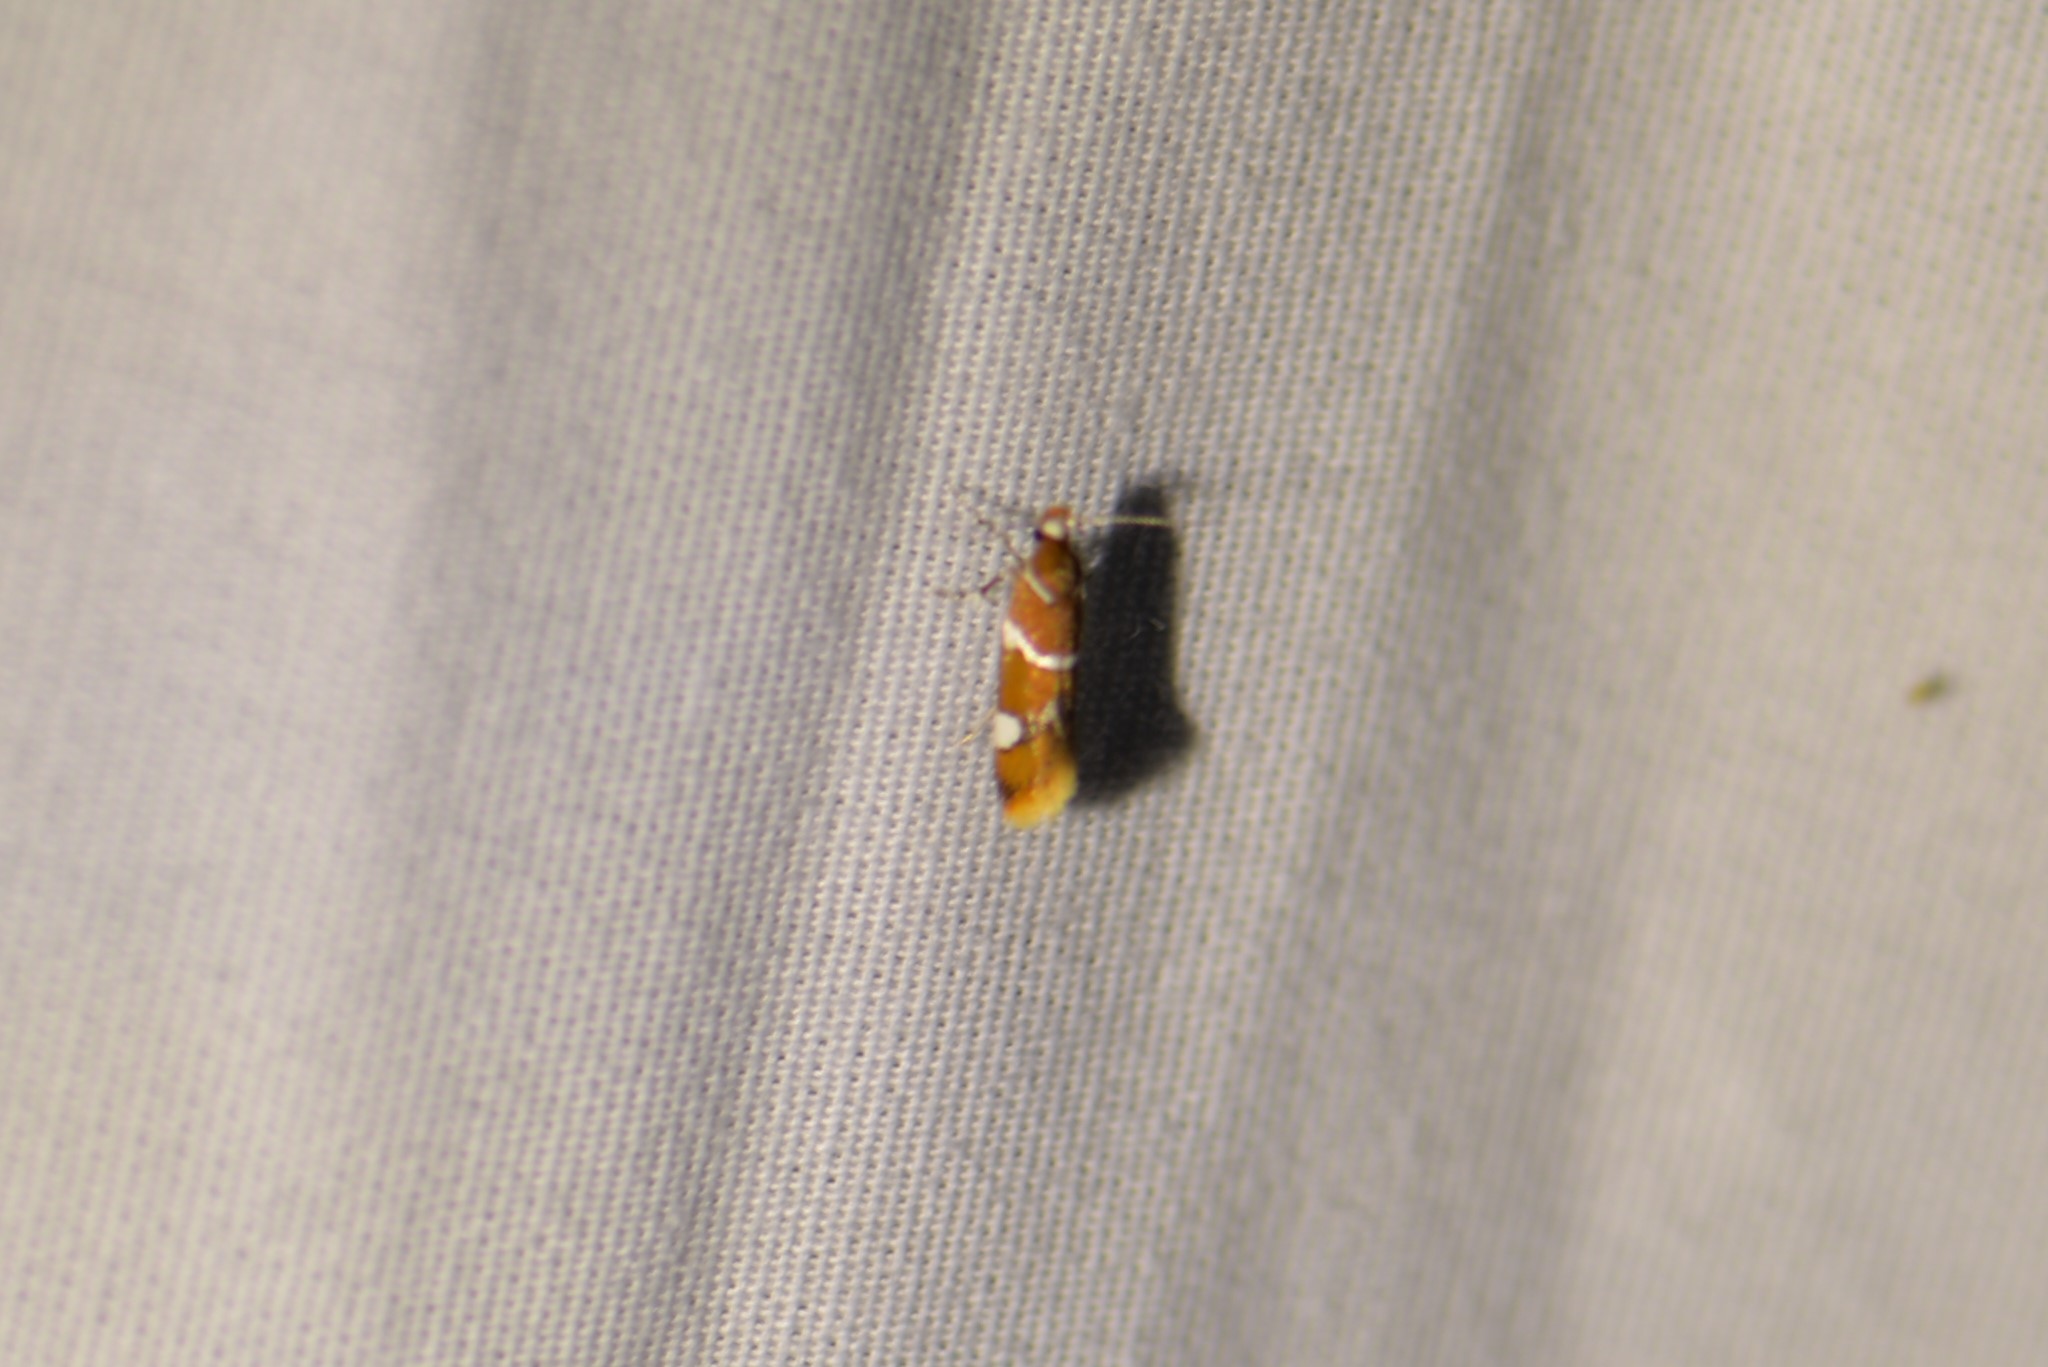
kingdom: Animalia
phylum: Arthropoda
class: Insecta
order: Lepidoptera
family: Oecophoridae
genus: Promalactis
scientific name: Promalactis suzukiella
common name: Moth
